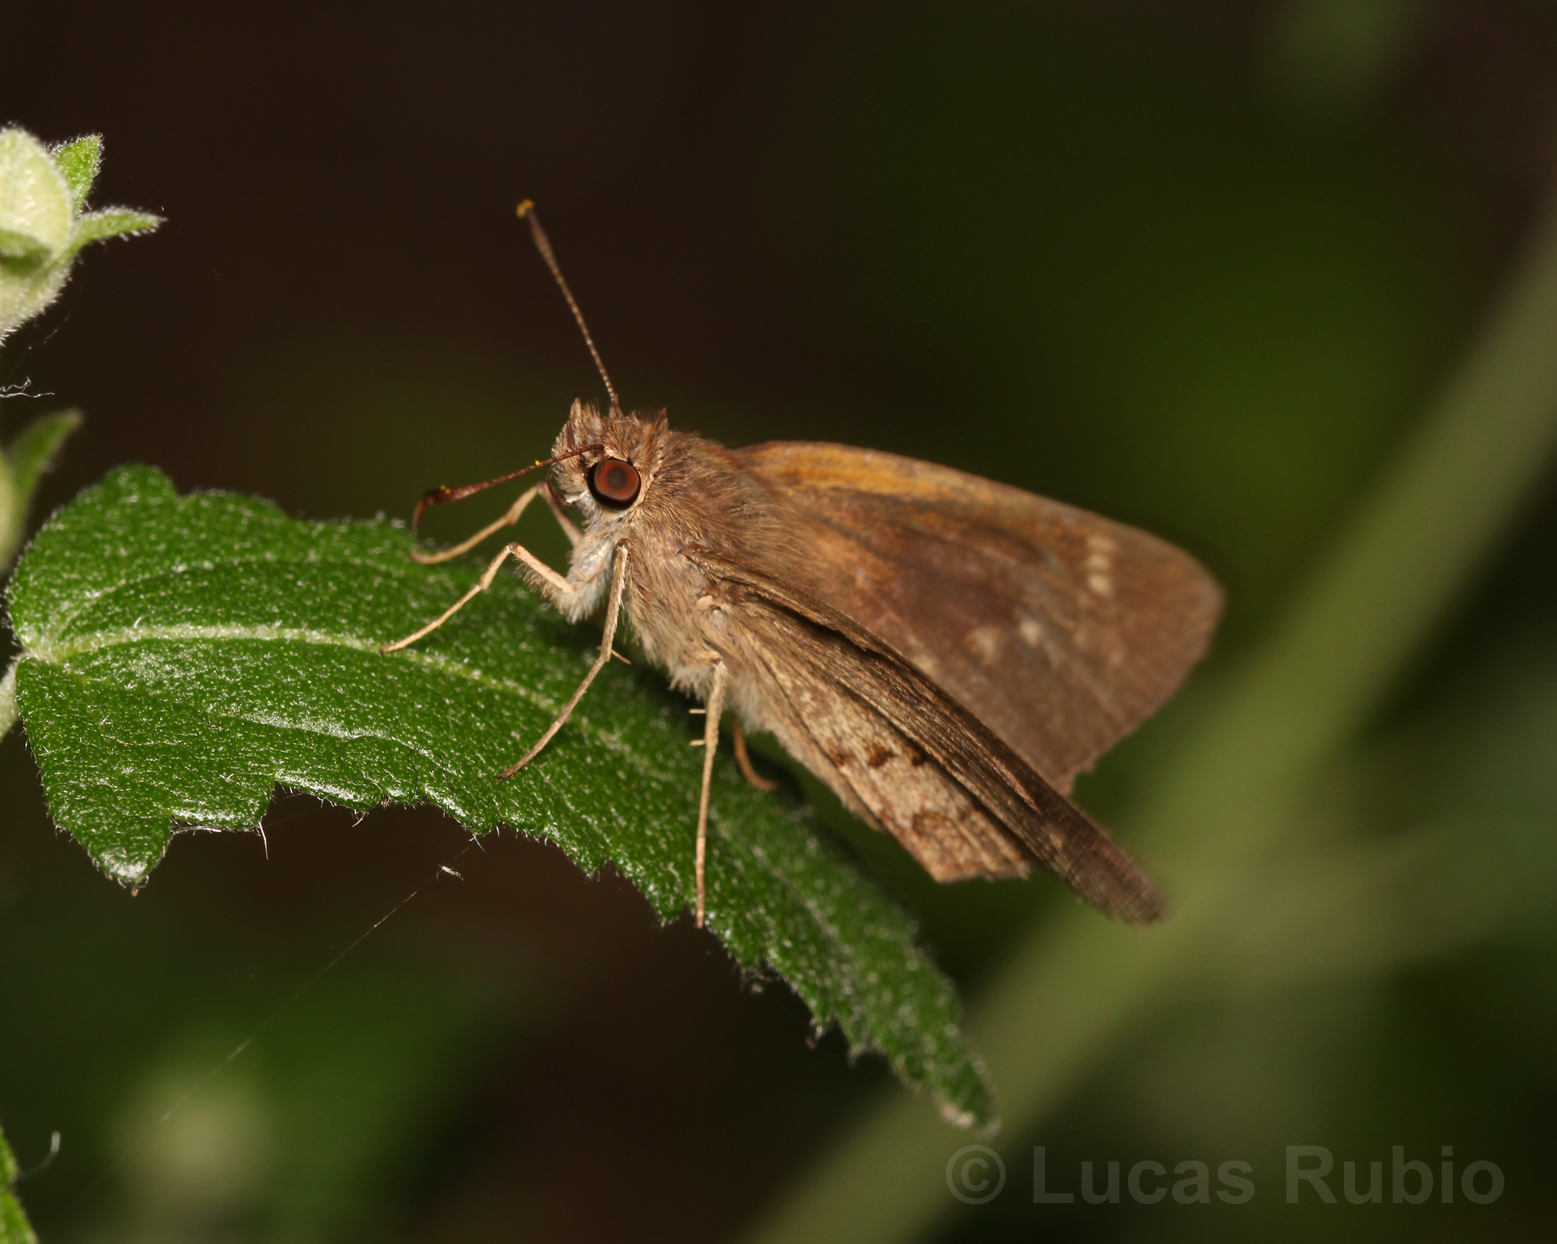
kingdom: Animalia
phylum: Arthropoda
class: Insecta
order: Lepidoptera
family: Hesperiidae
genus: Cymaenes
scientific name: Cymaenes gisca
